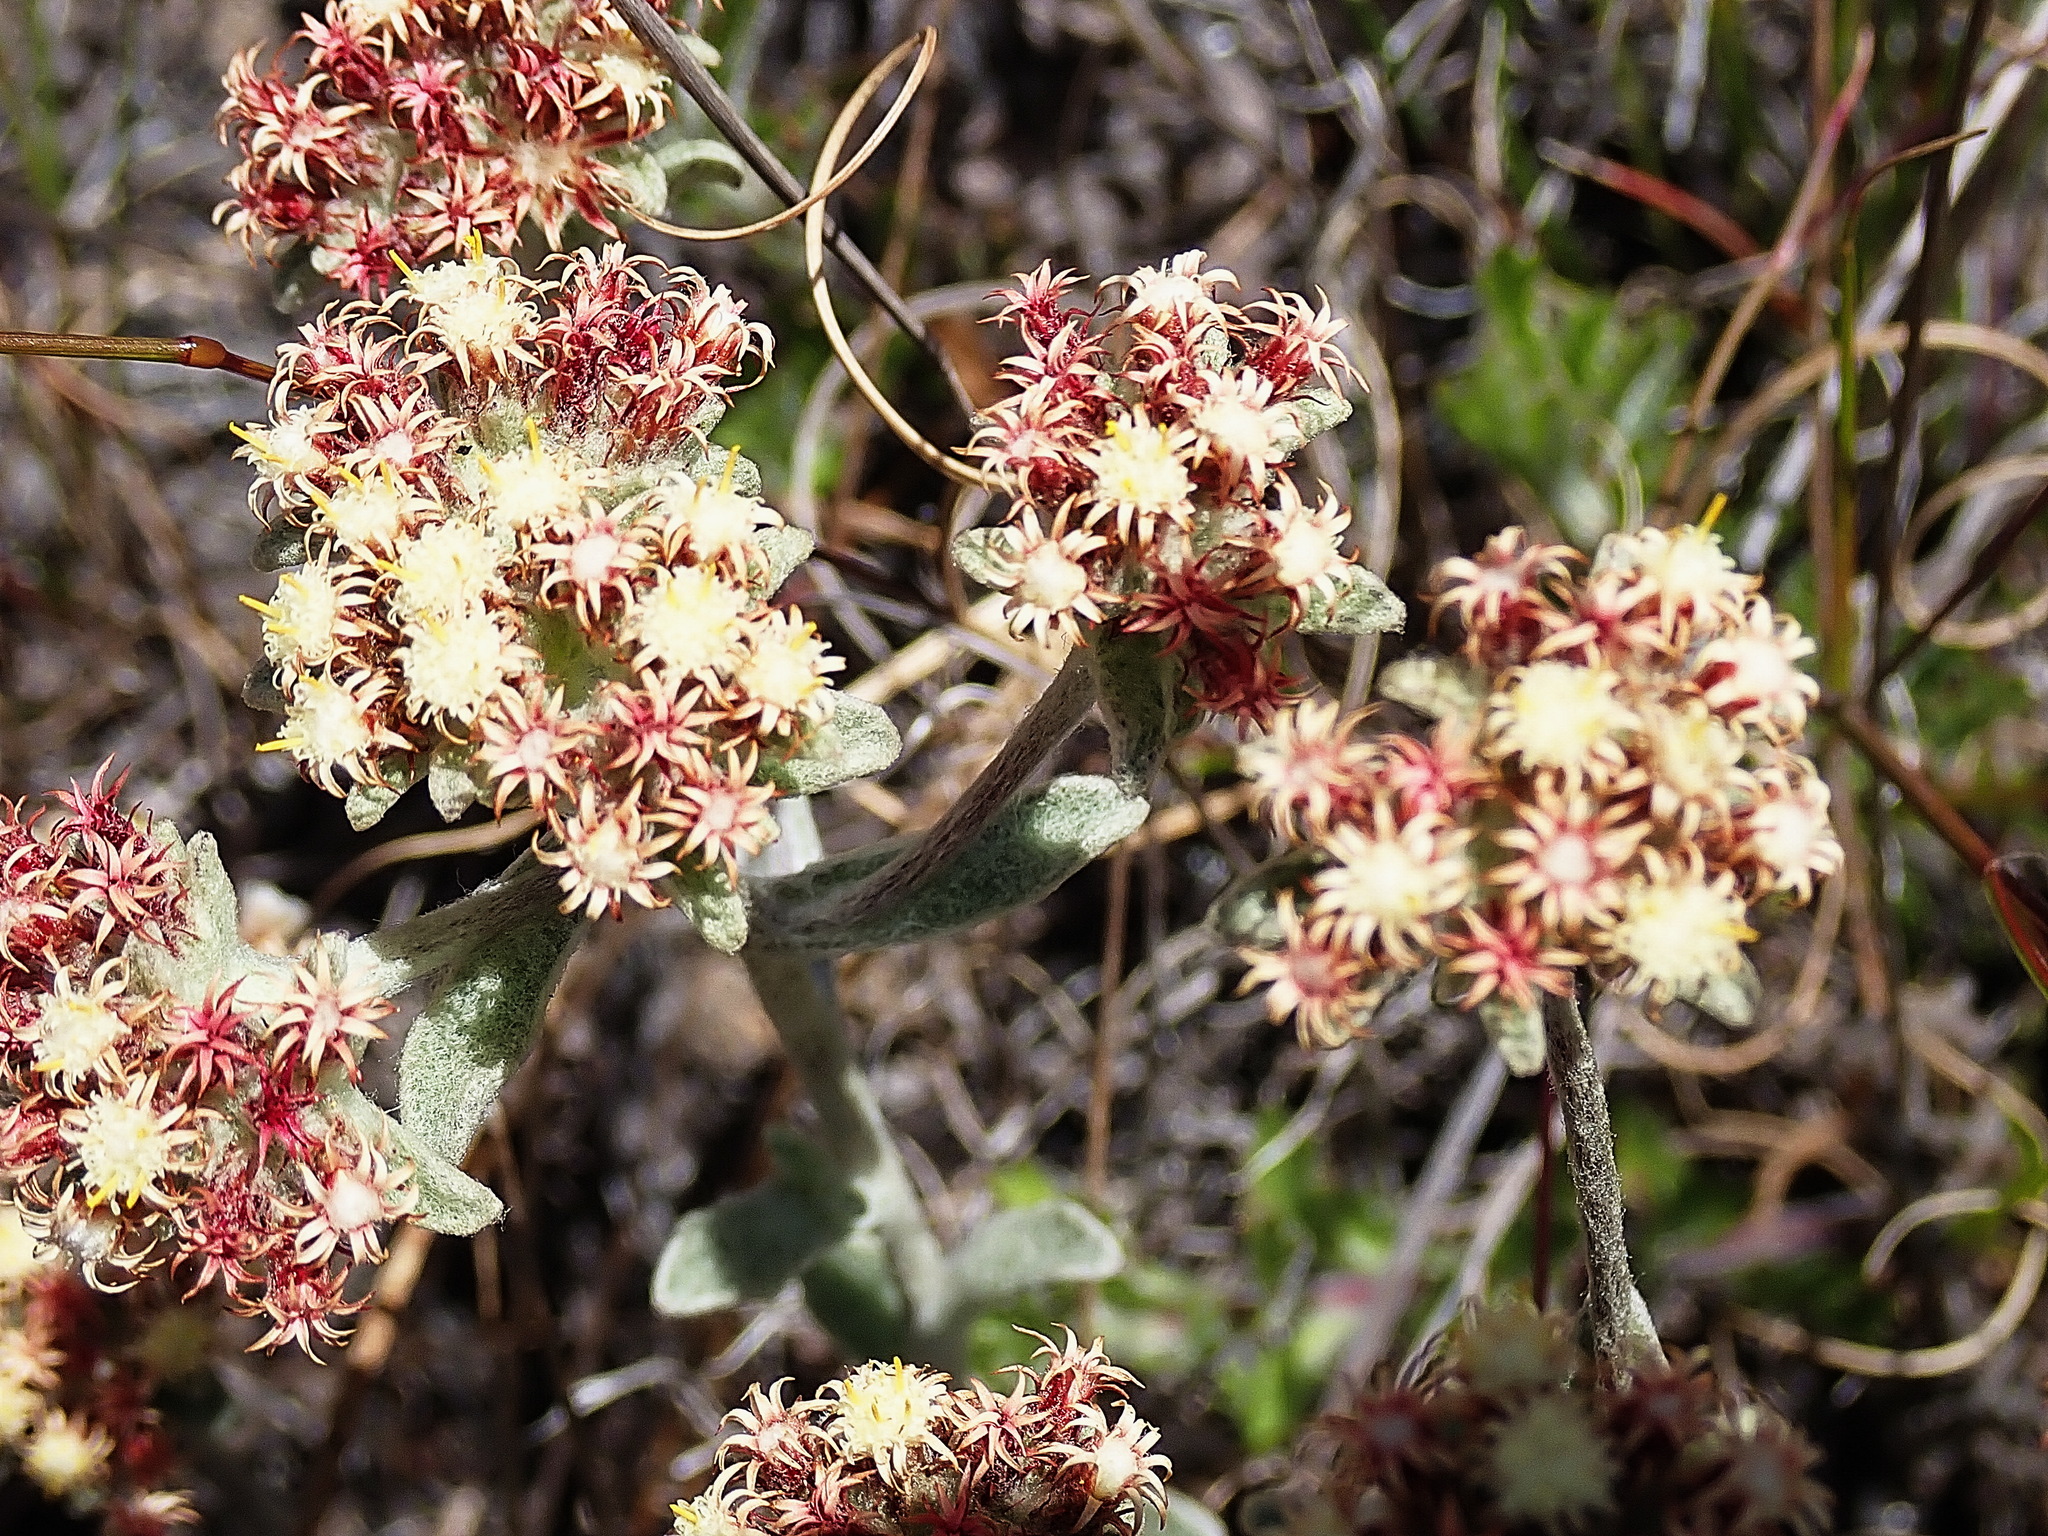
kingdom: Plantae
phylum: Tracheophyta
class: Magnoliopsida
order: Asterales
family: Asteraceae
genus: Helichrysum
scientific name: Helichrysum spiralepis
